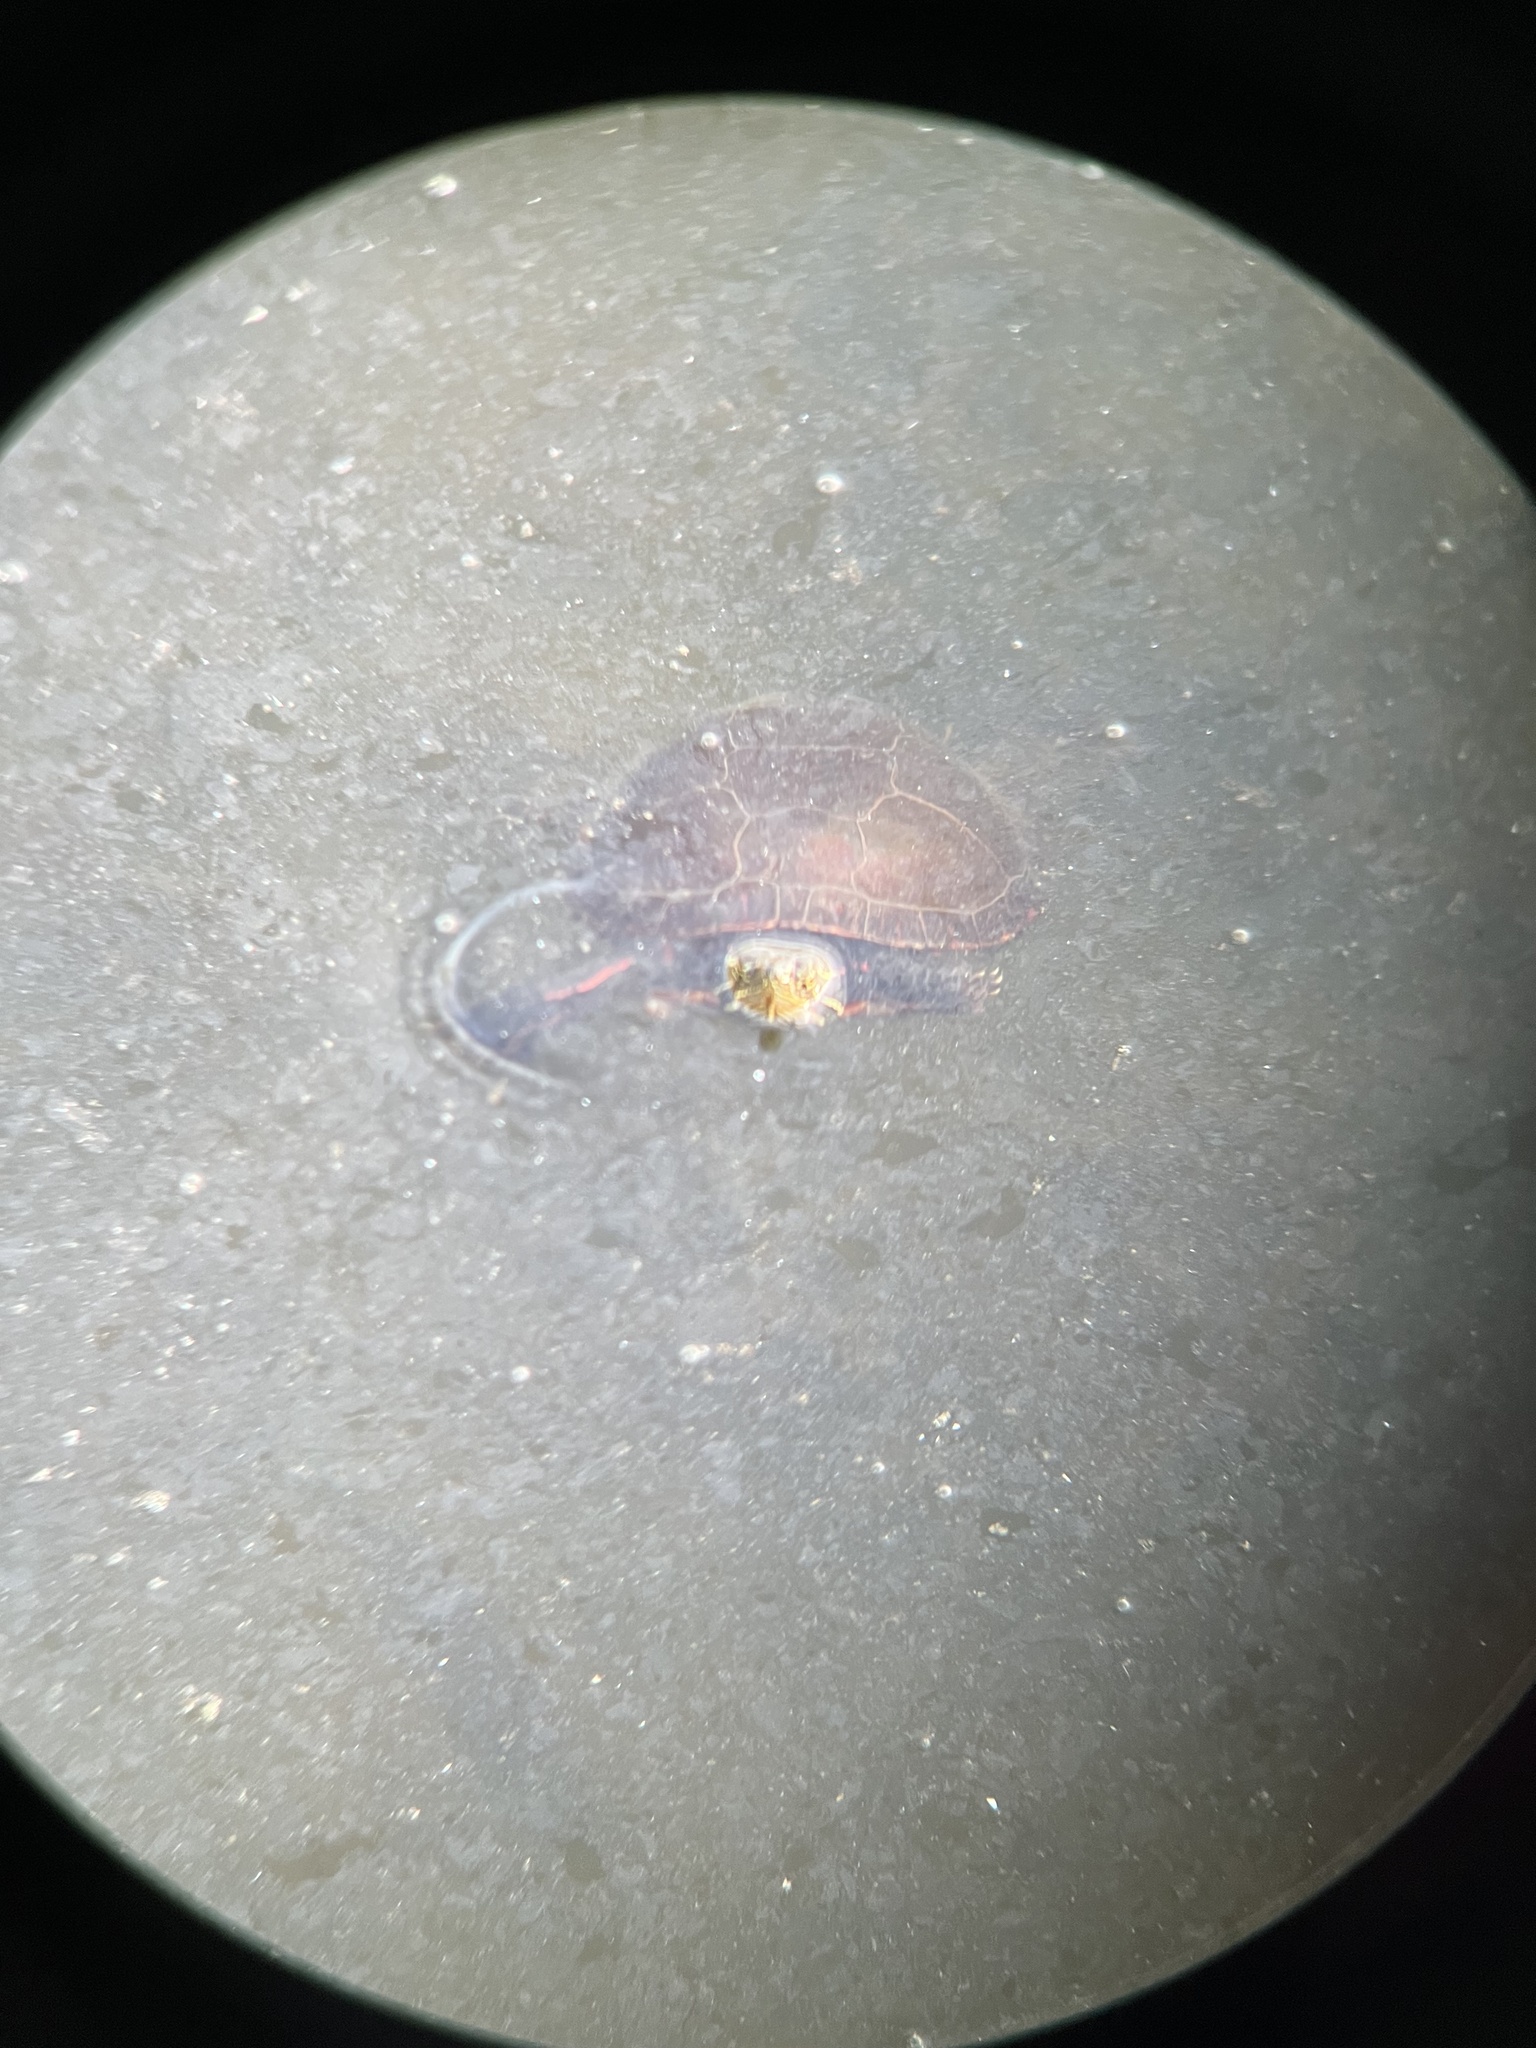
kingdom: Animalia
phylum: Chordata
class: Testudines
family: Emydidae
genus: Chrysemys
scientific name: Chrysemys picta
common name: Painted turtle
